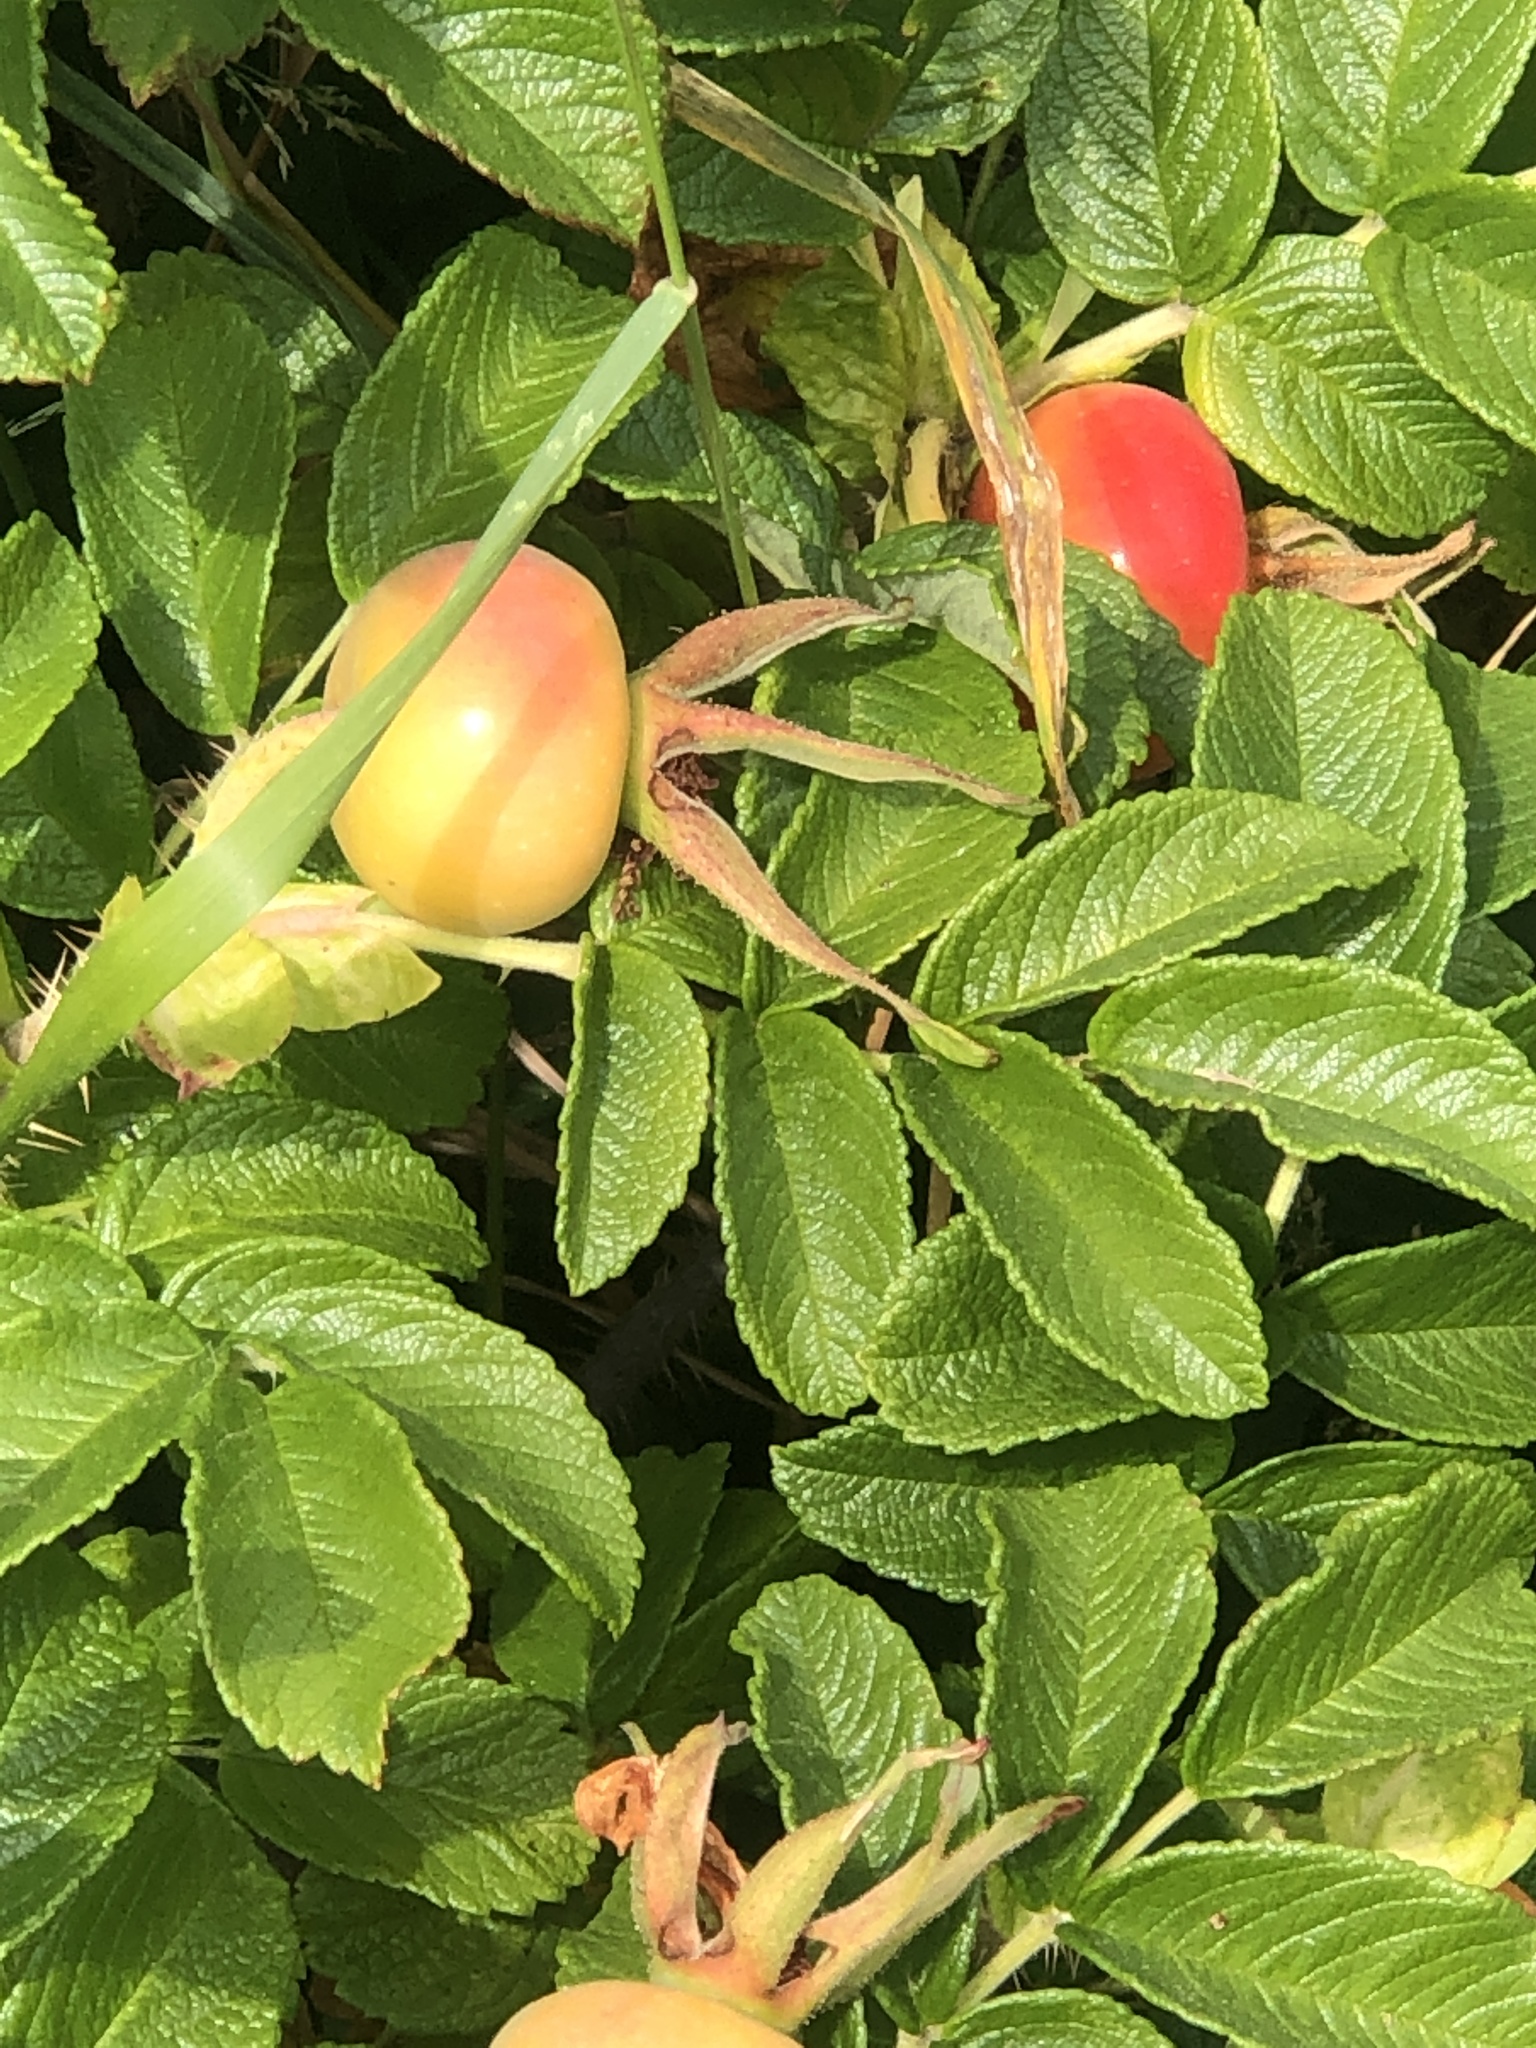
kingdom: Plantae
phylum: Tracheophyta
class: Magnoliopsida
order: Rosales
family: Rosaceae
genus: Rosa
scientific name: Rosa rugosa
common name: Japanese rose
